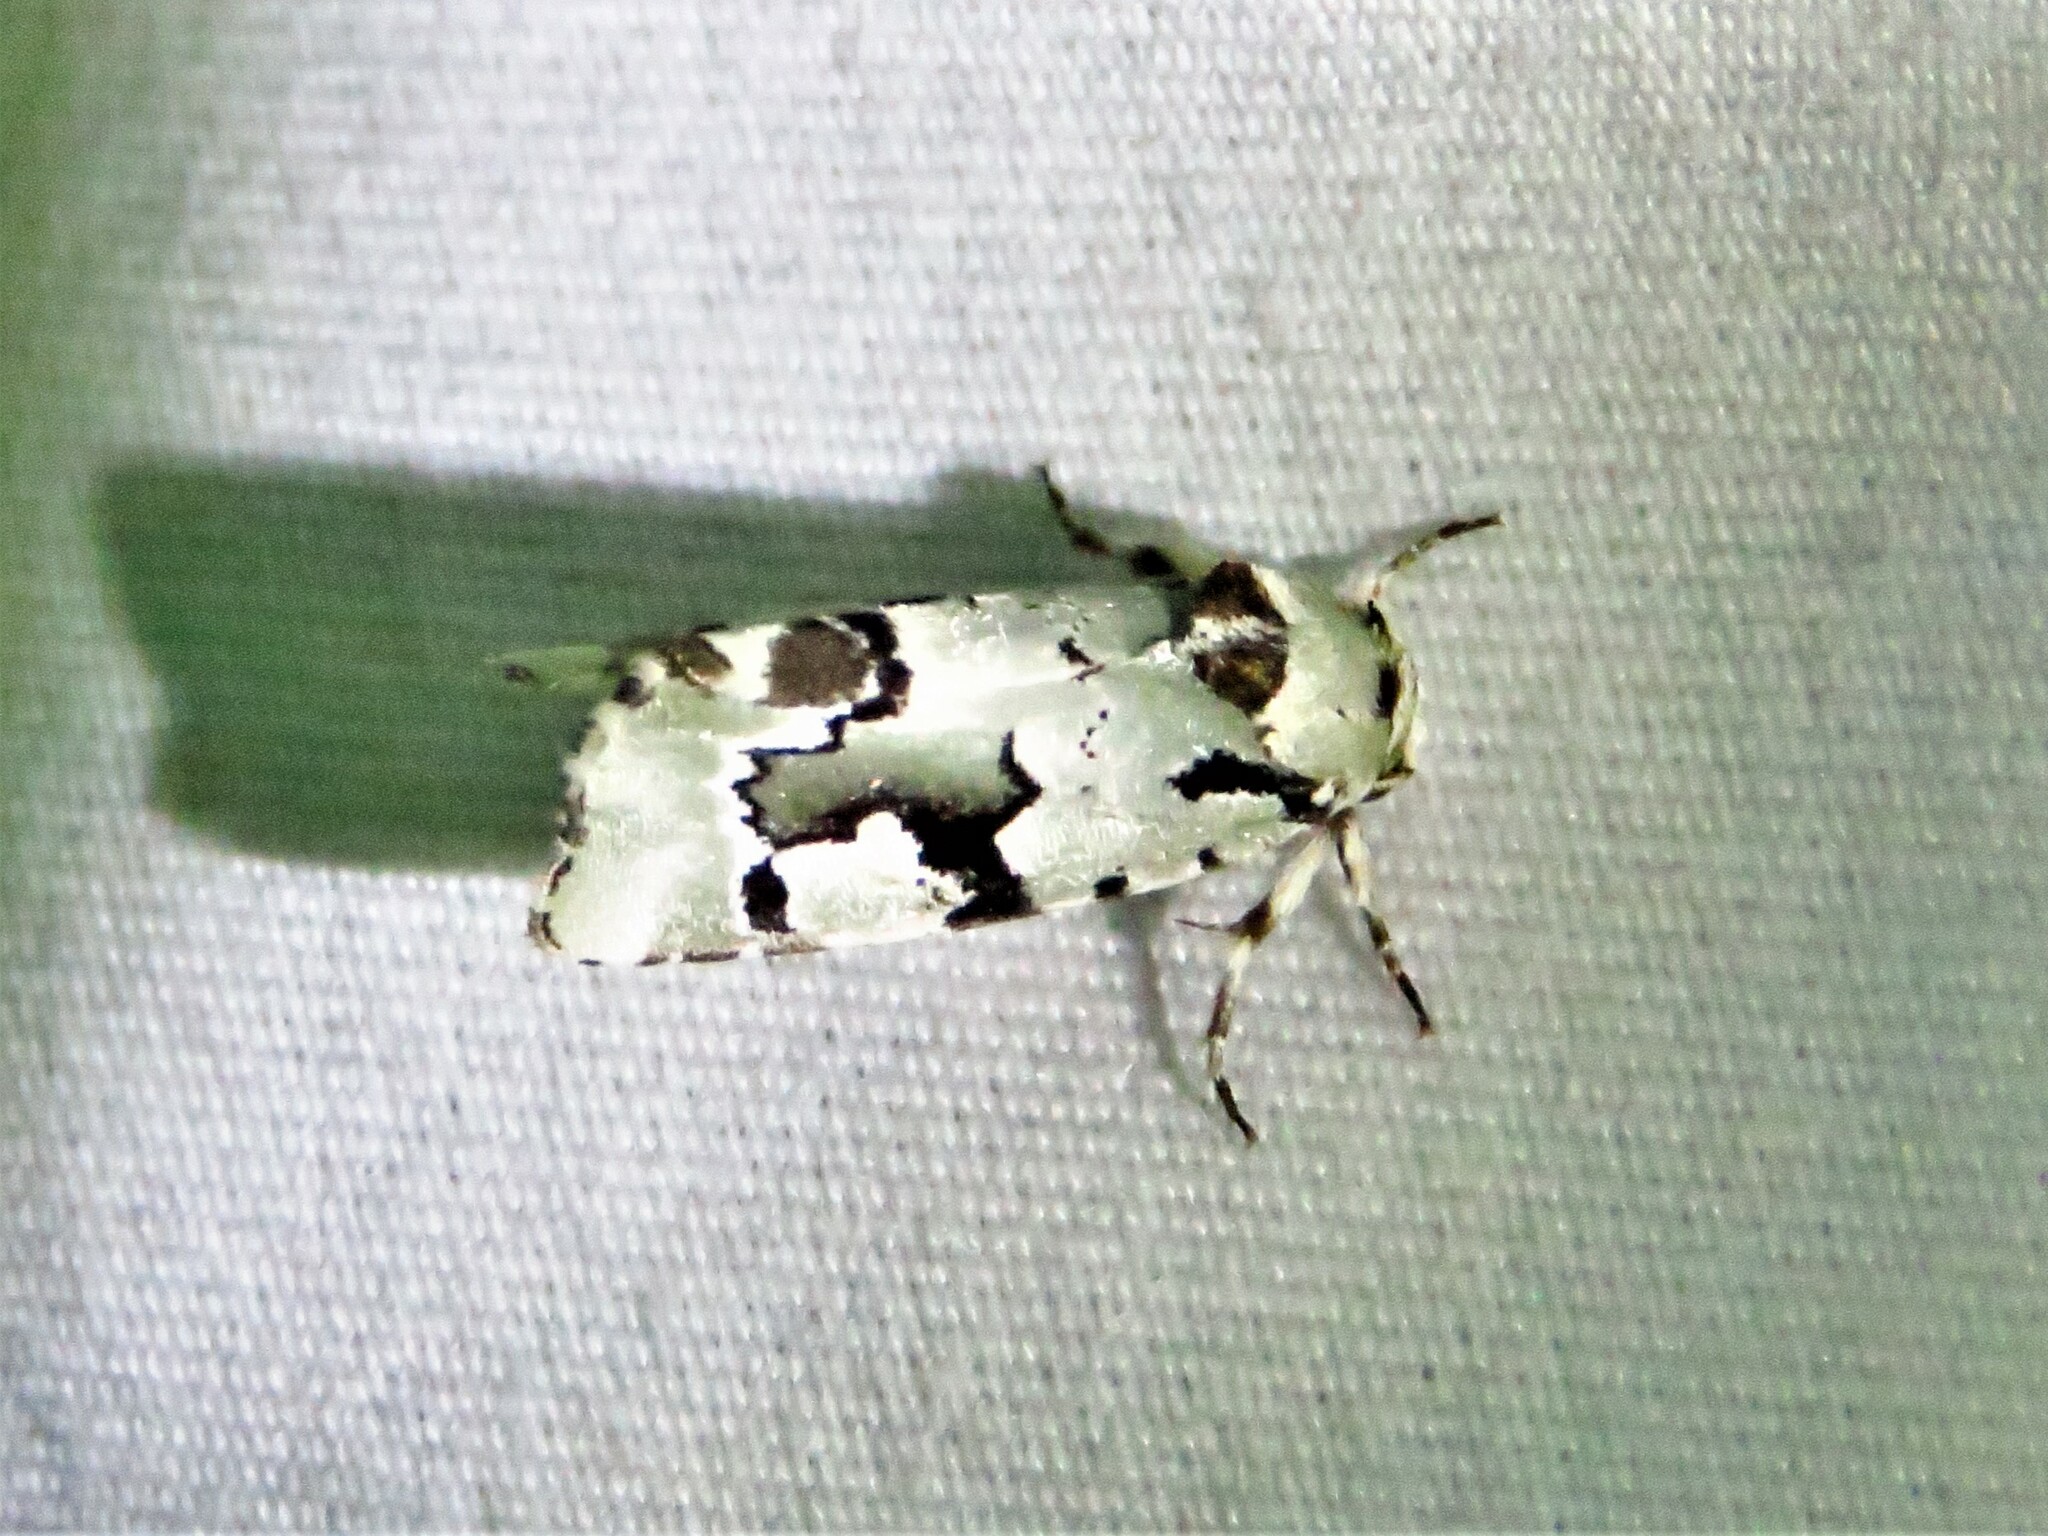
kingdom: Animalia
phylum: Arthropoda
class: Insecta
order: Lepidoptera
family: Noctuidae
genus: Emarginea
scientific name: Emarginea percara
